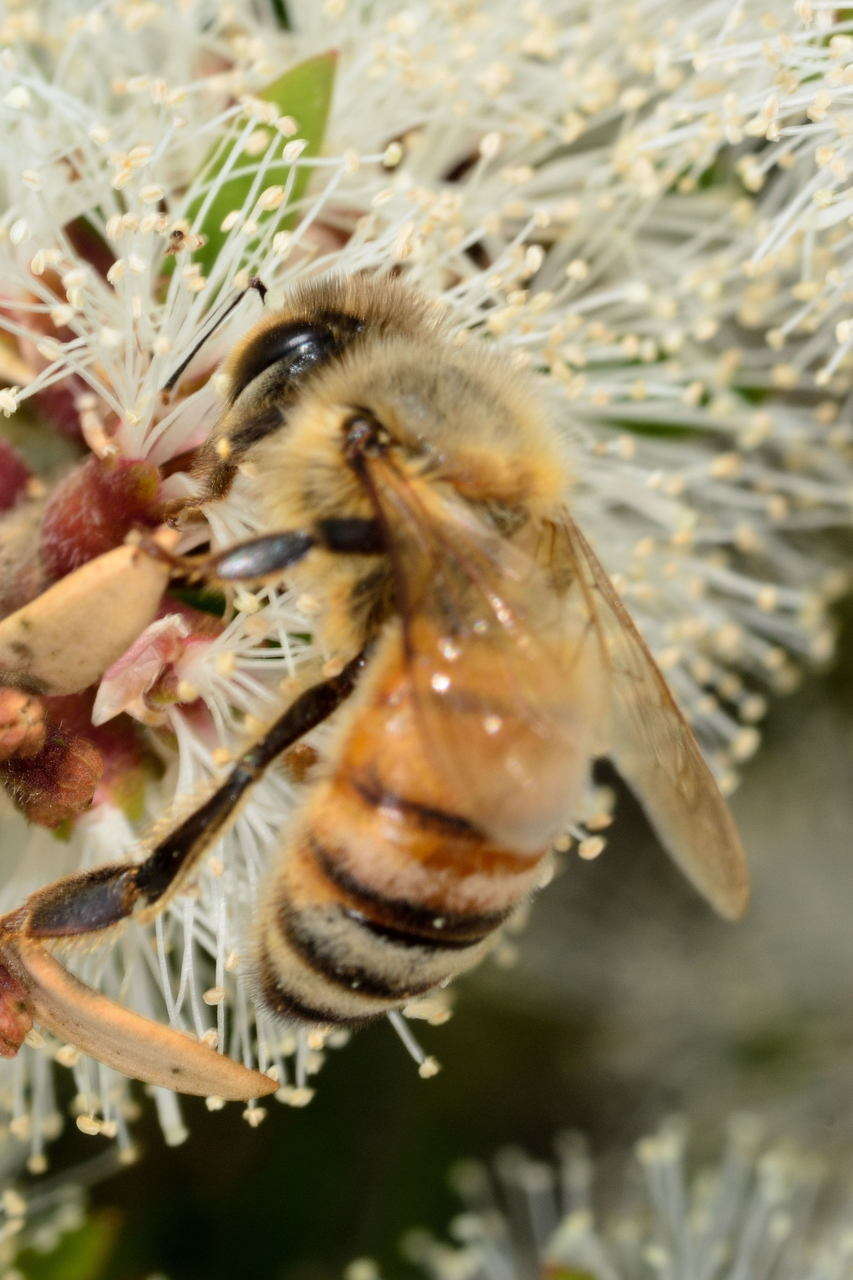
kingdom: Animalia
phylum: Arthropoda
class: Insecta
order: Hymenoptera
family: Apidae
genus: Apis
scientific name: Apis mellifera
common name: Honey bee
